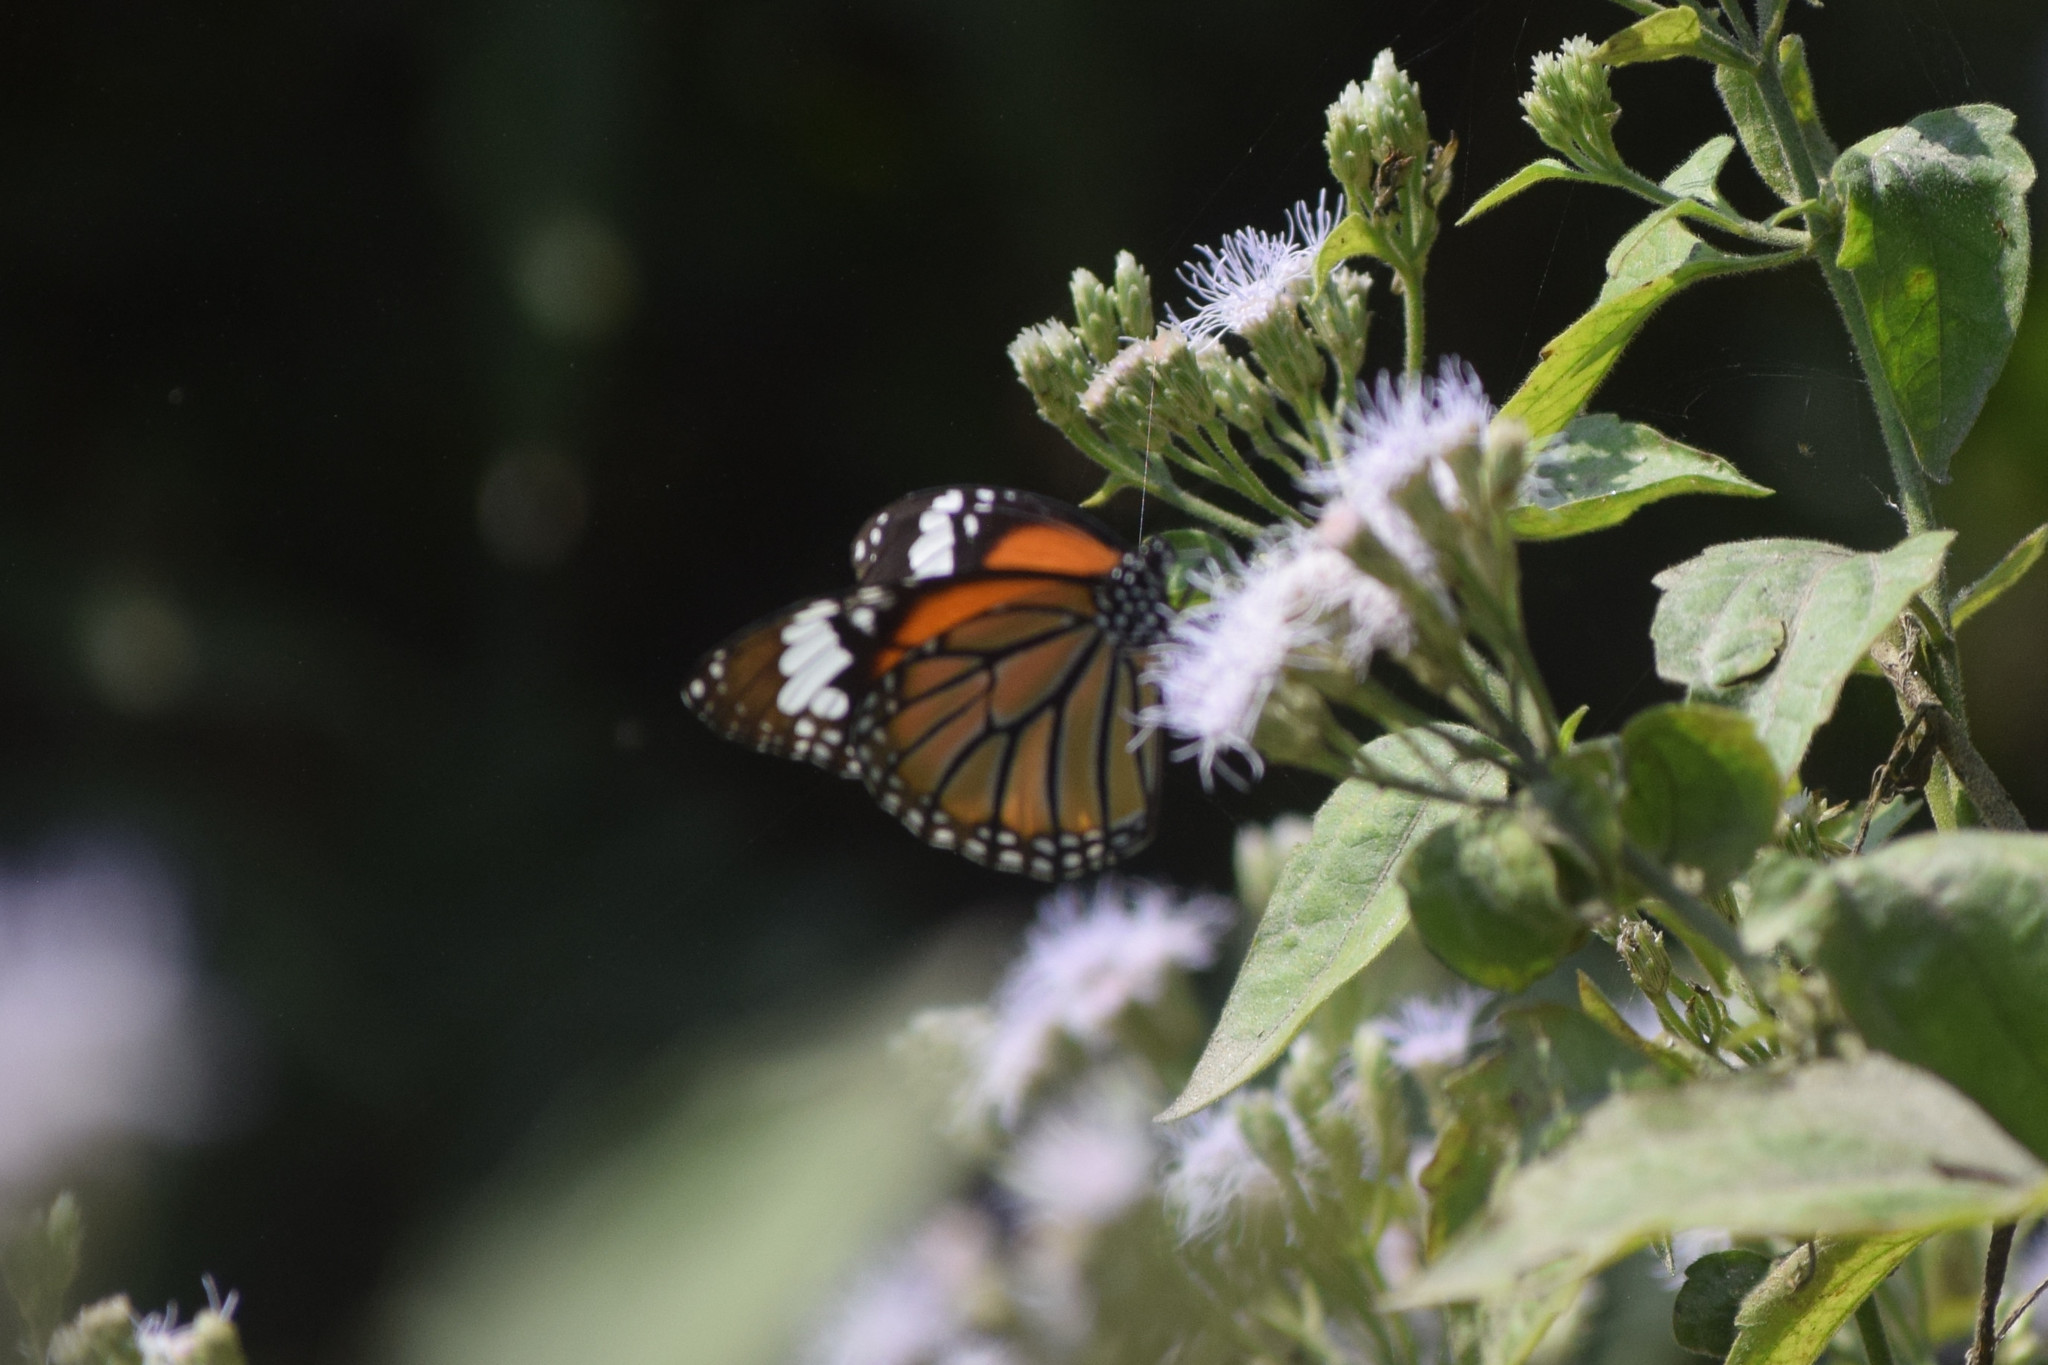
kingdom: Animalia
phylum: Arthropoda
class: Insecta
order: Lepidoptera
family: Nymphalidae
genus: Danaus
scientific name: Danaus genutia
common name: Common tiger butterfly
